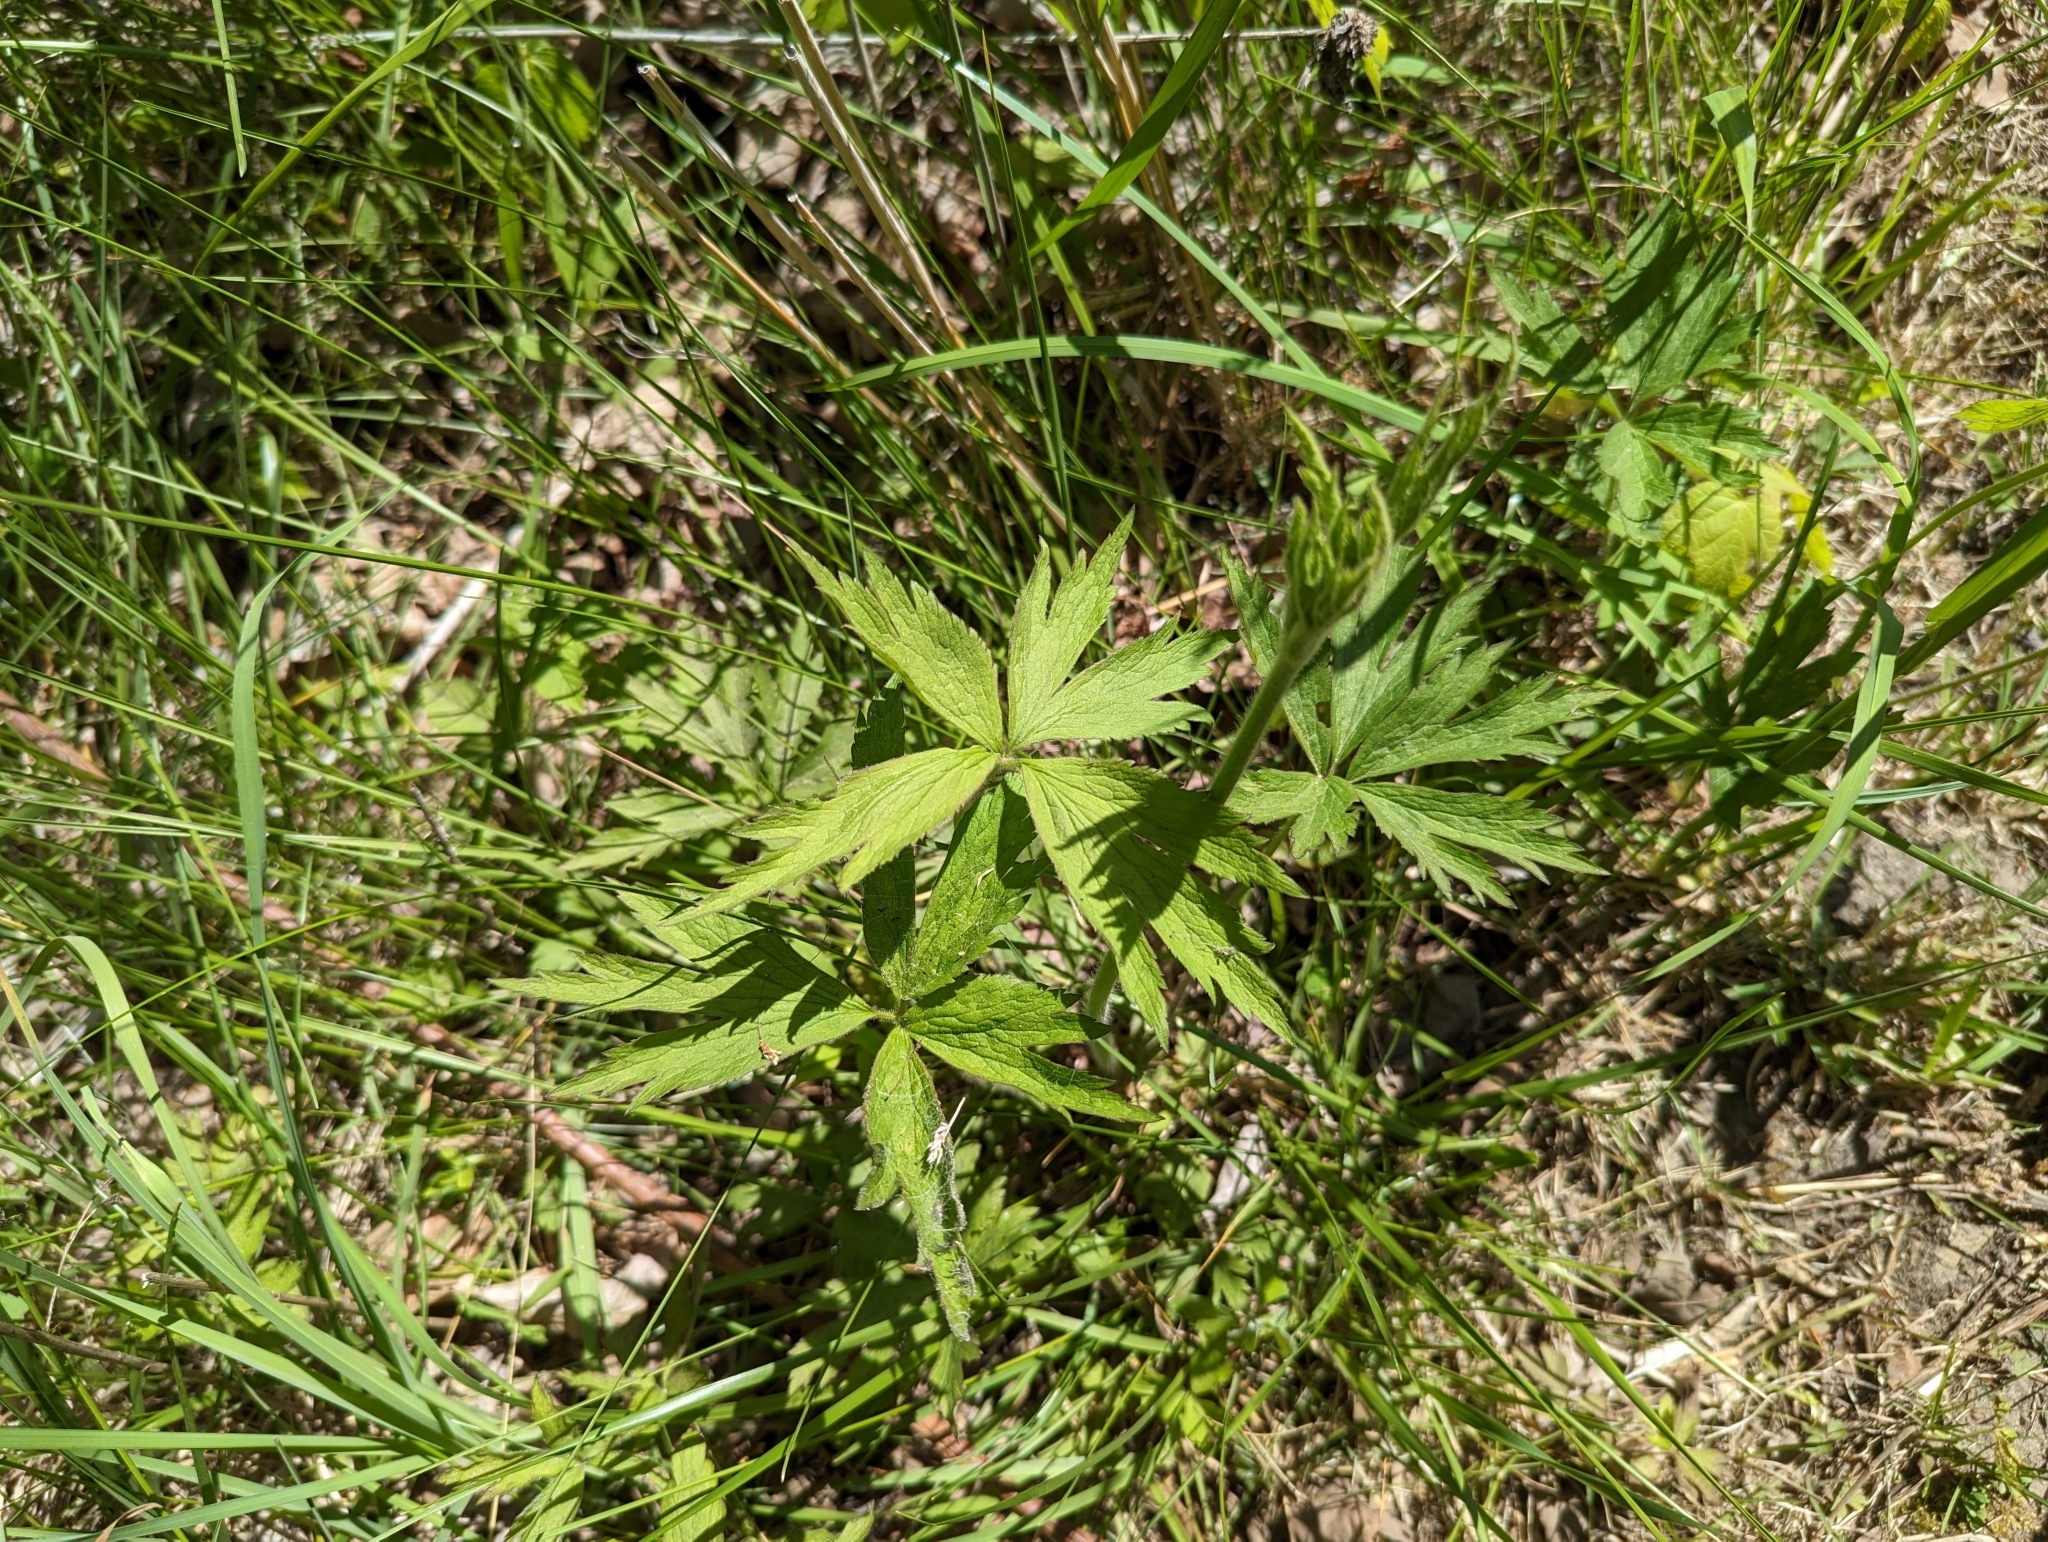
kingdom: Plantae
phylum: Tracheophyta
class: Magnoliopsida
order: Ranunculales
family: Ranunculaceae
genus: Anemone
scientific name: Anemone virginiana
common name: Tall anemone
